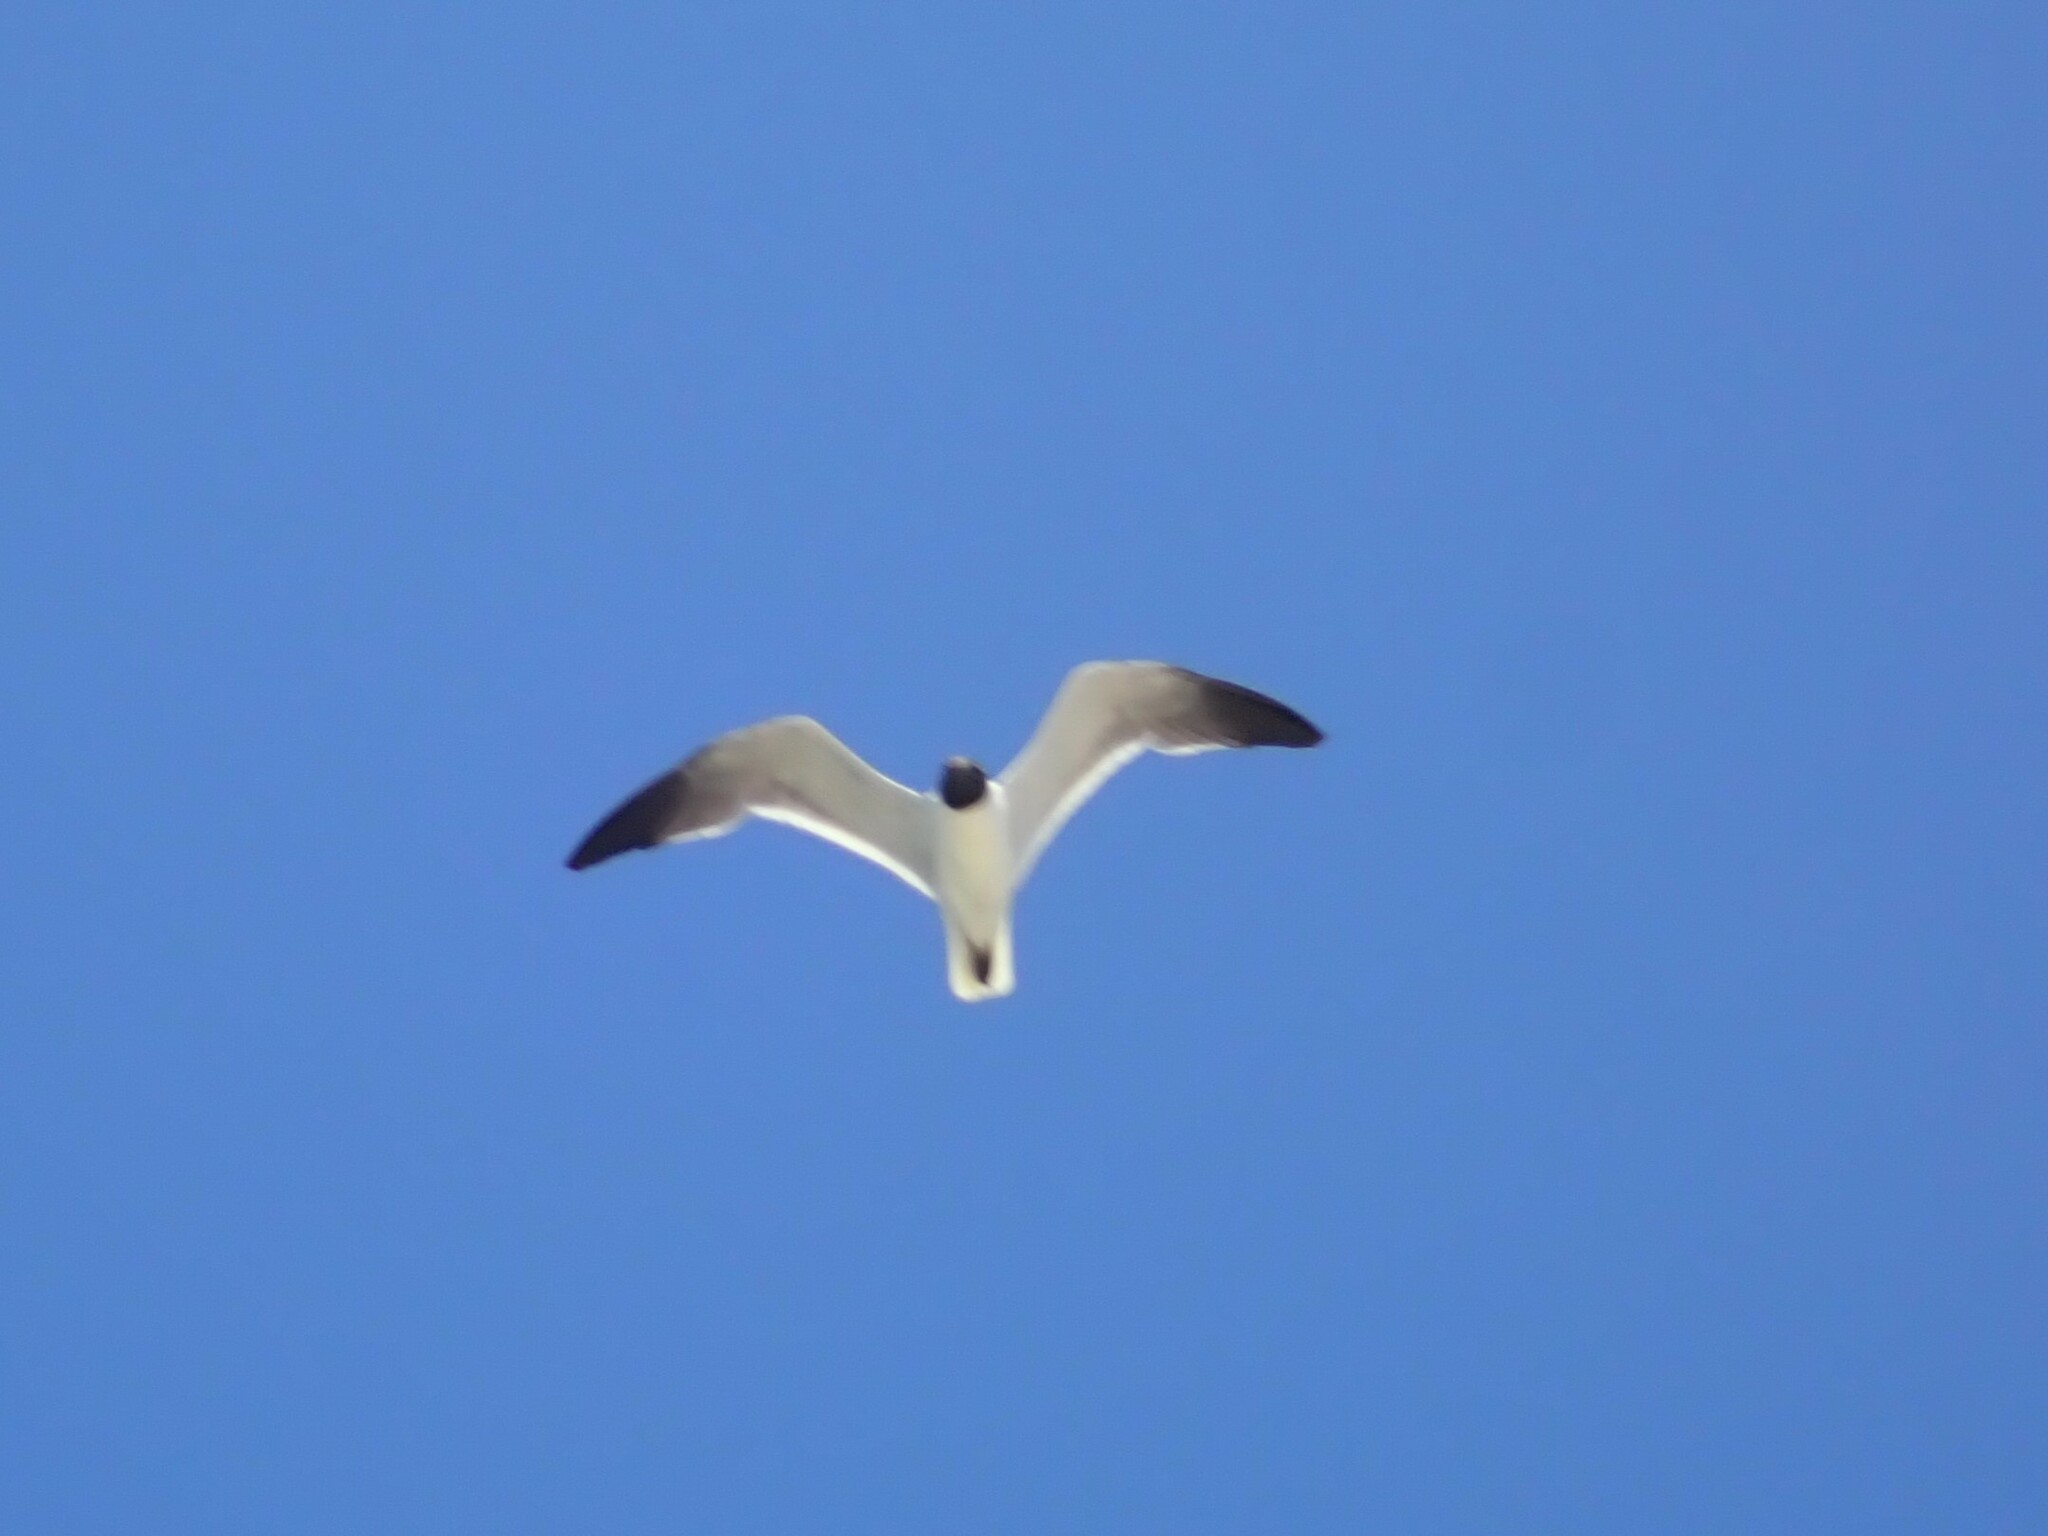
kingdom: Animalia
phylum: Chordata
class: Aves
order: Charadriiformes
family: Laridae
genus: Leucophaeus
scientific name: Leucophaeus atricilla
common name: Laughing gull
